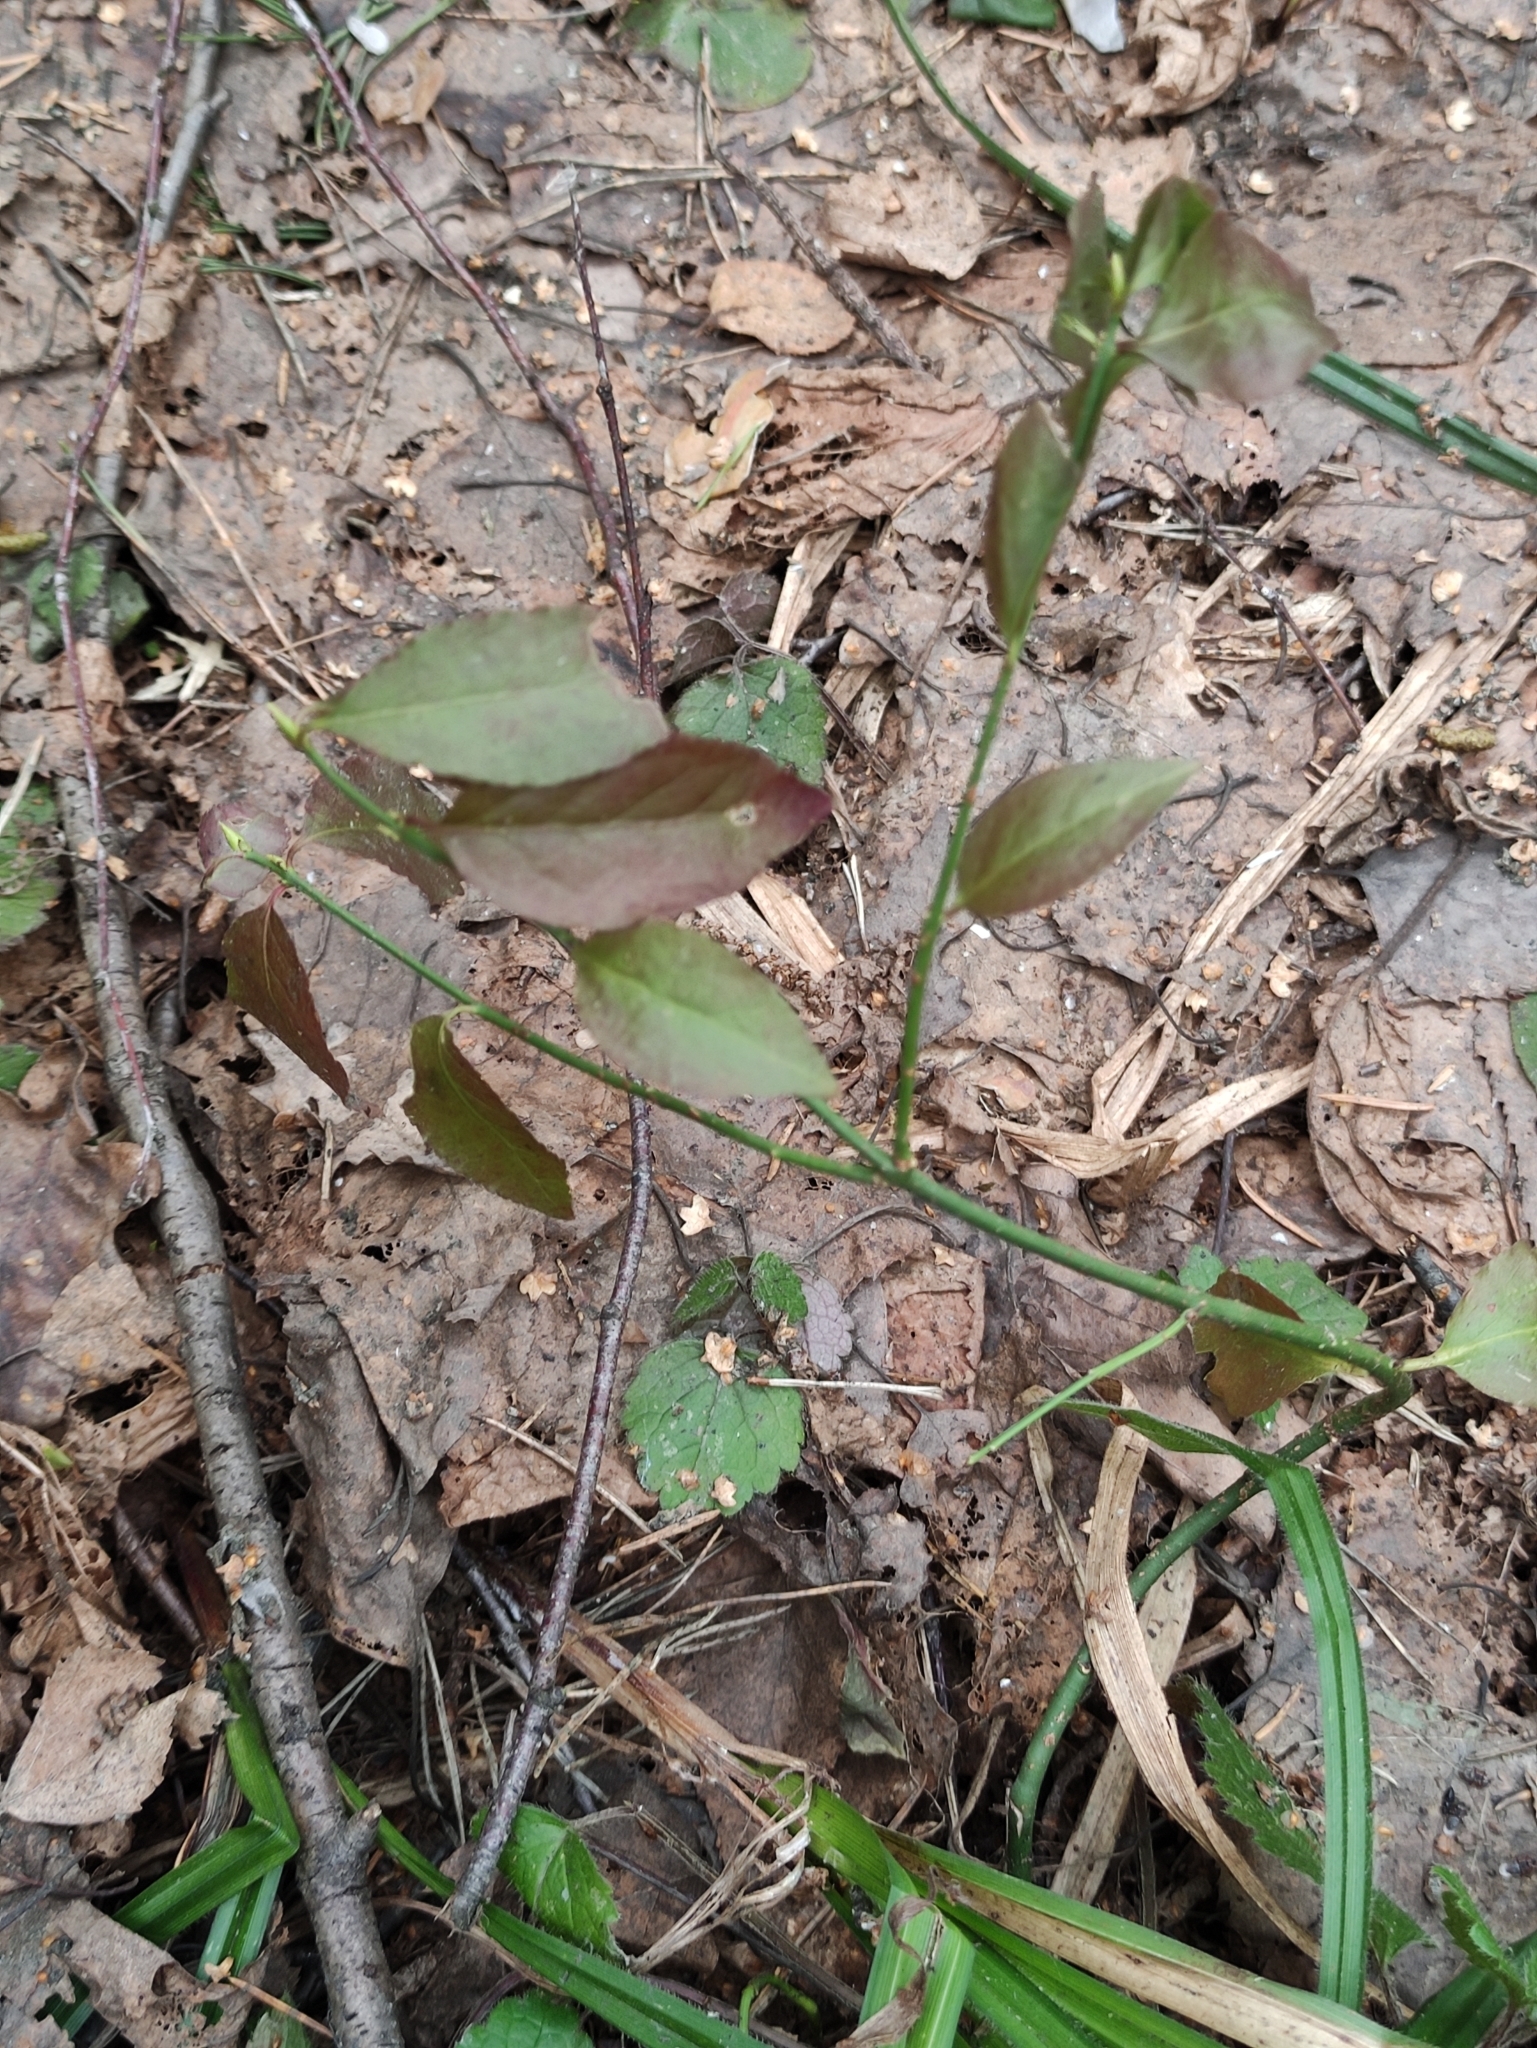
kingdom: Plantae
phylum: Tracheophyta
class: Magnoliopsida
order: Celastrales
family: Celastraceae
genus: Euonymus
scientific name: Euonymus europaeus
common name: Spindle
